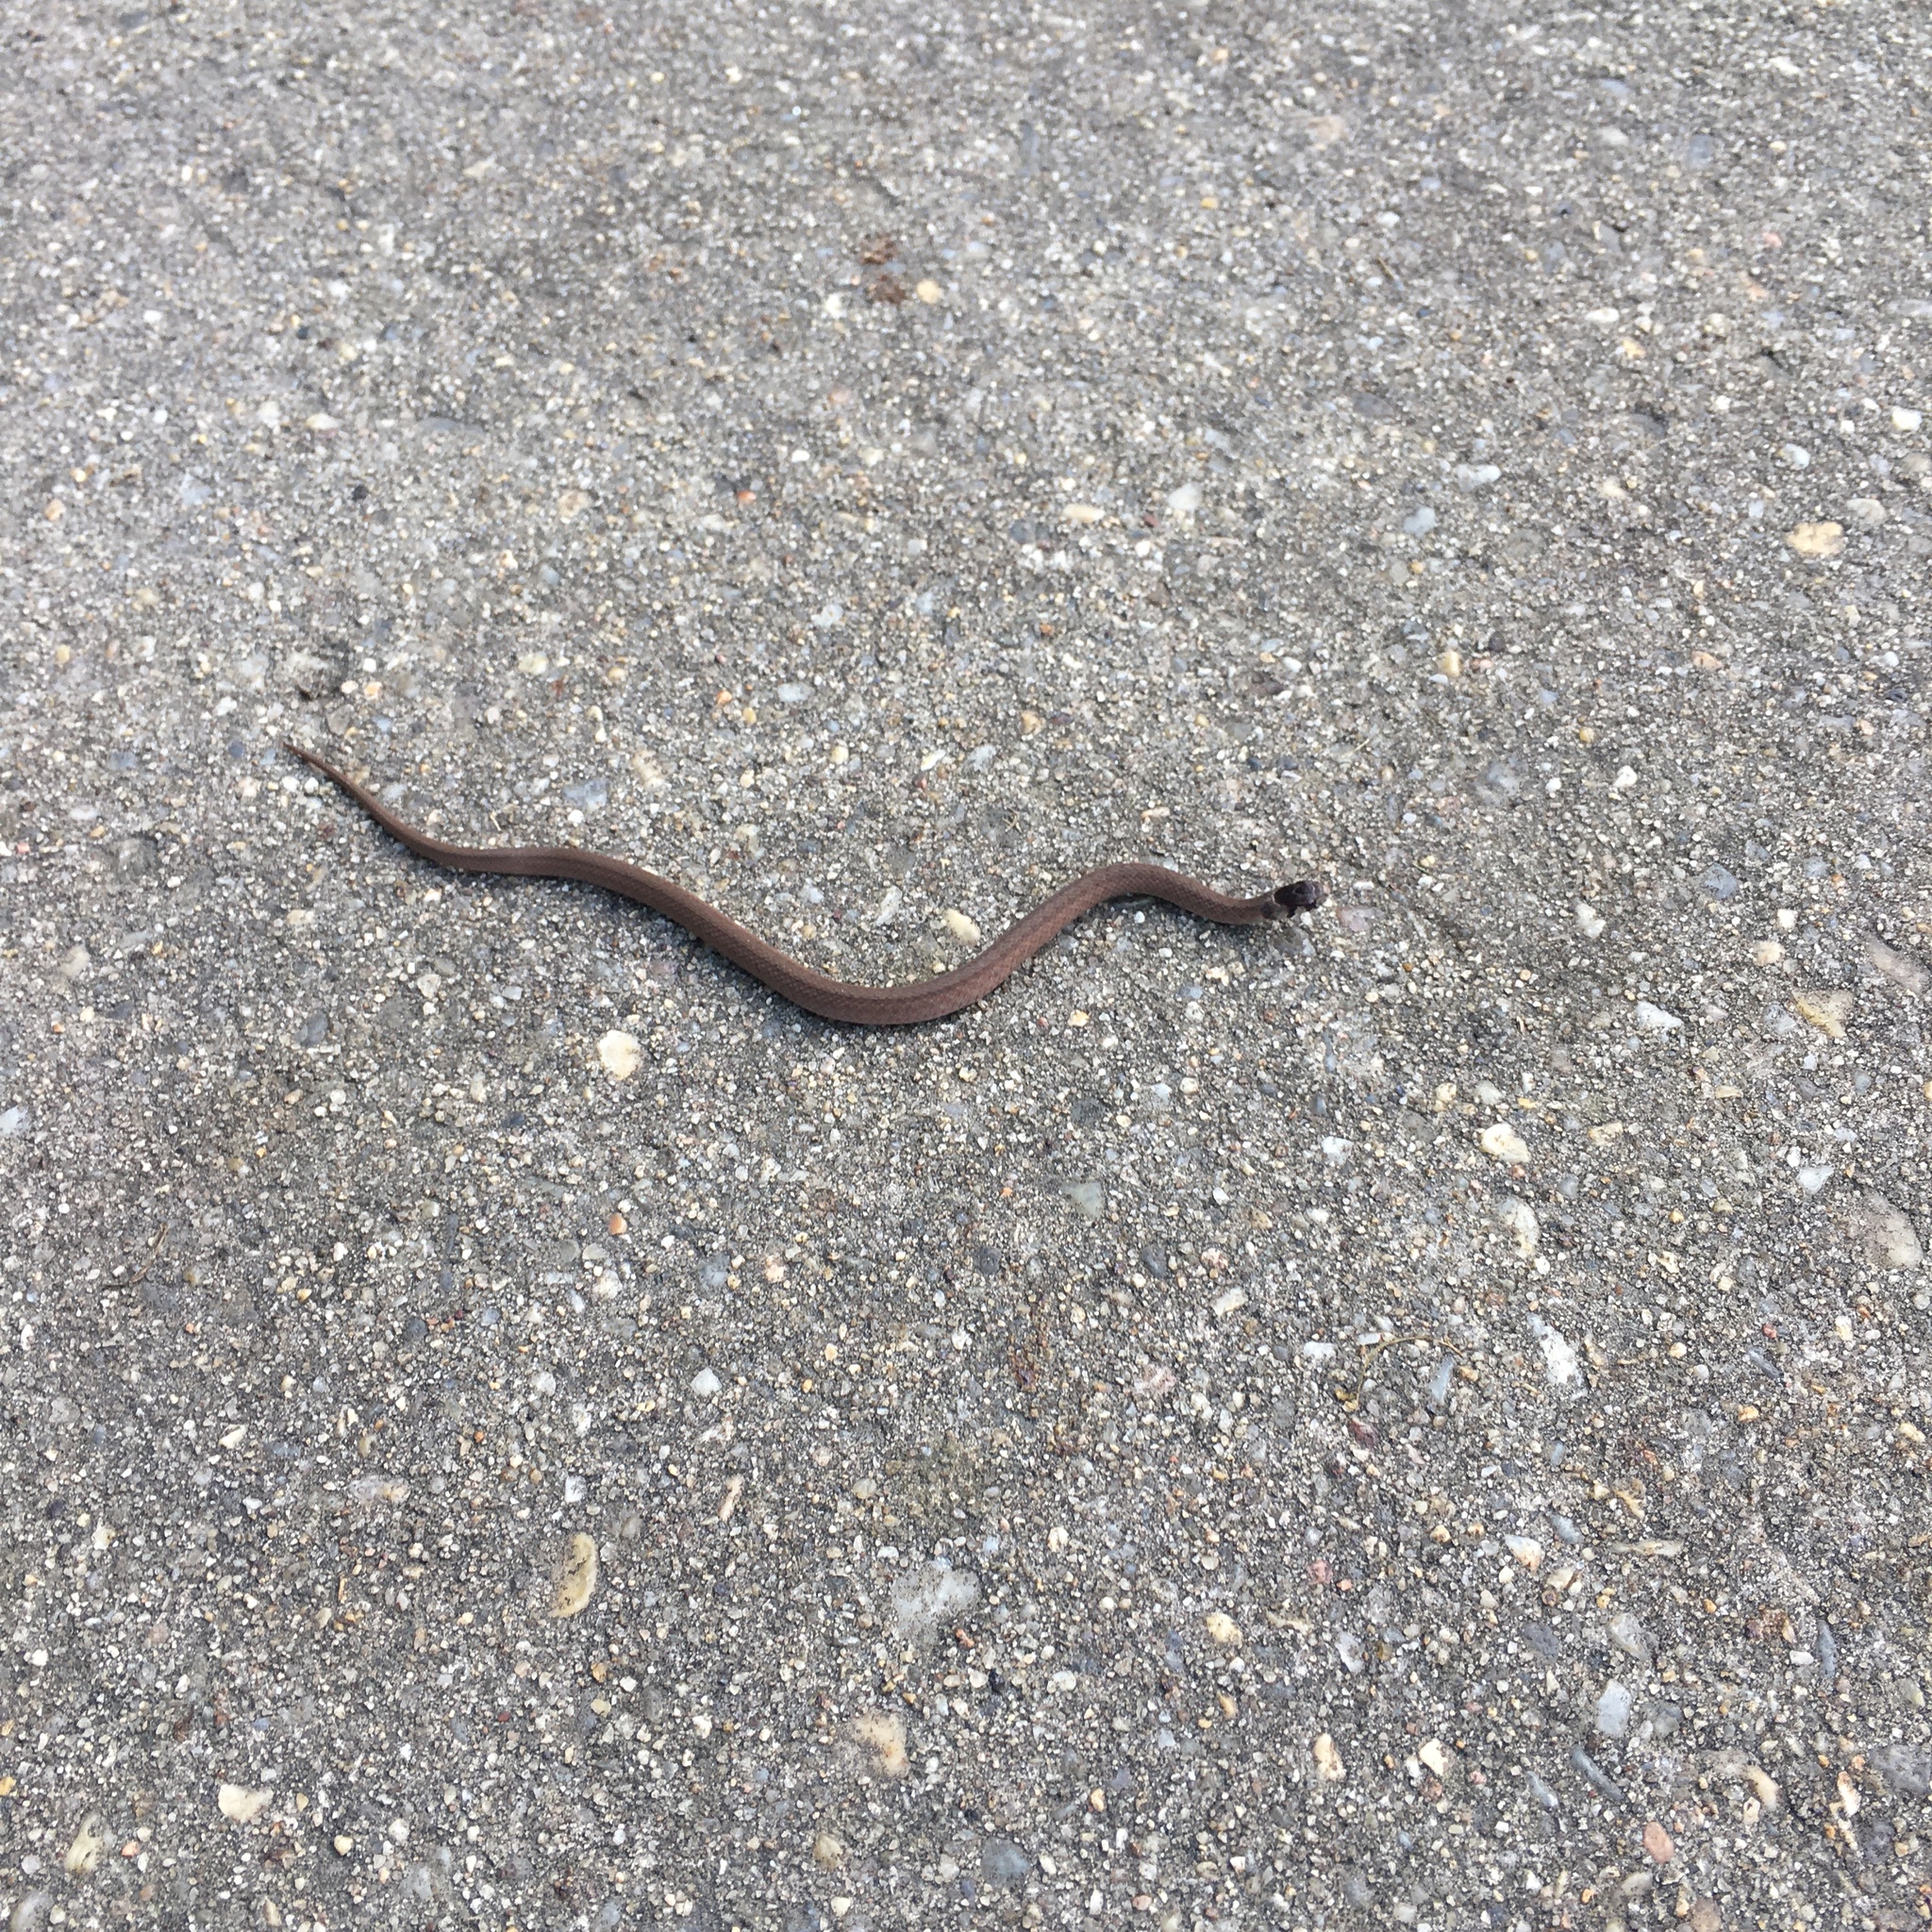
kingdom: Animalia
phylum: Chordata
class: Squamata
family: Colubridae
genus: Storeria
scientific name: Storeria dekayi
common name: (dekay’s) brown snake
